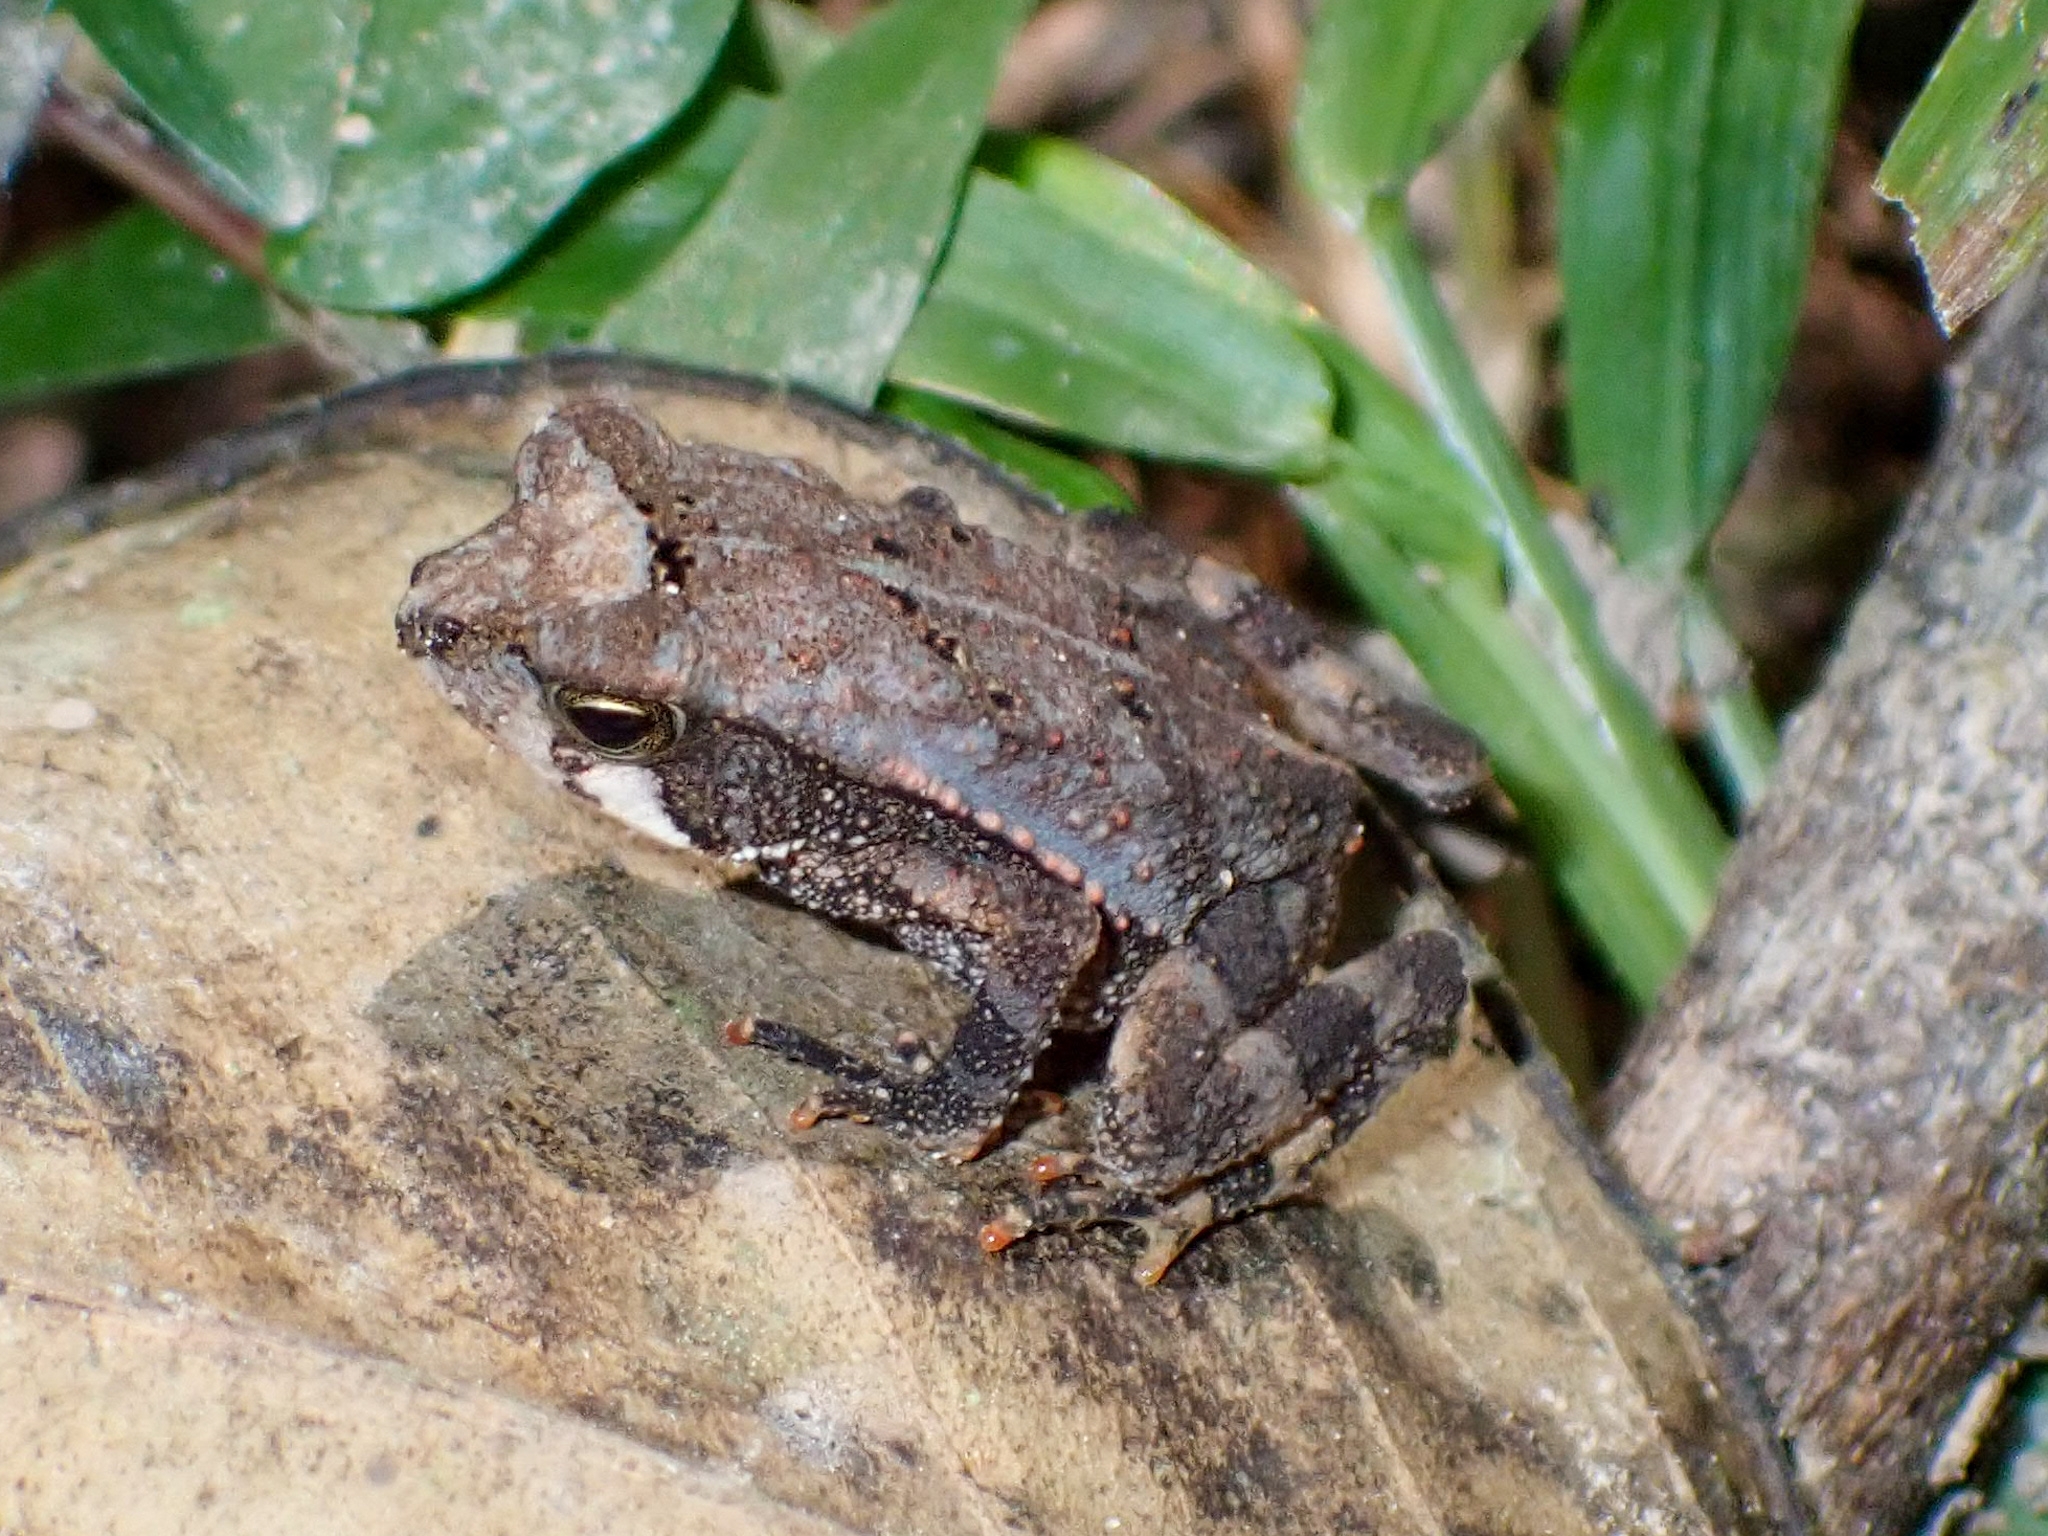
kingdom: Animalia
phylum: Chordata
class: Amphibia
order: Anura
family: Bufonidae
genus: Incilius
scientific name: Incilius valliceps
